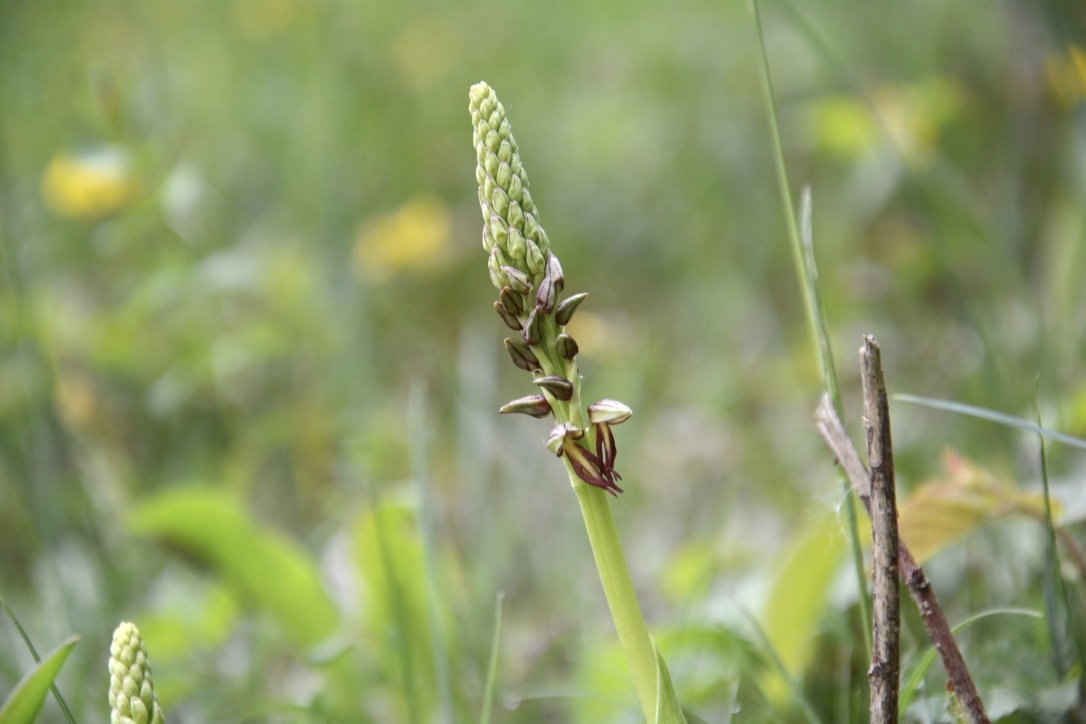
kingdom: Plantae
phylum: Tracheophyta
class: Liliopsida
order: Asparagales
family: Orchidaceae
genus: Orchis
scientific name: Orchis anthropophora
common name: Man orchid
